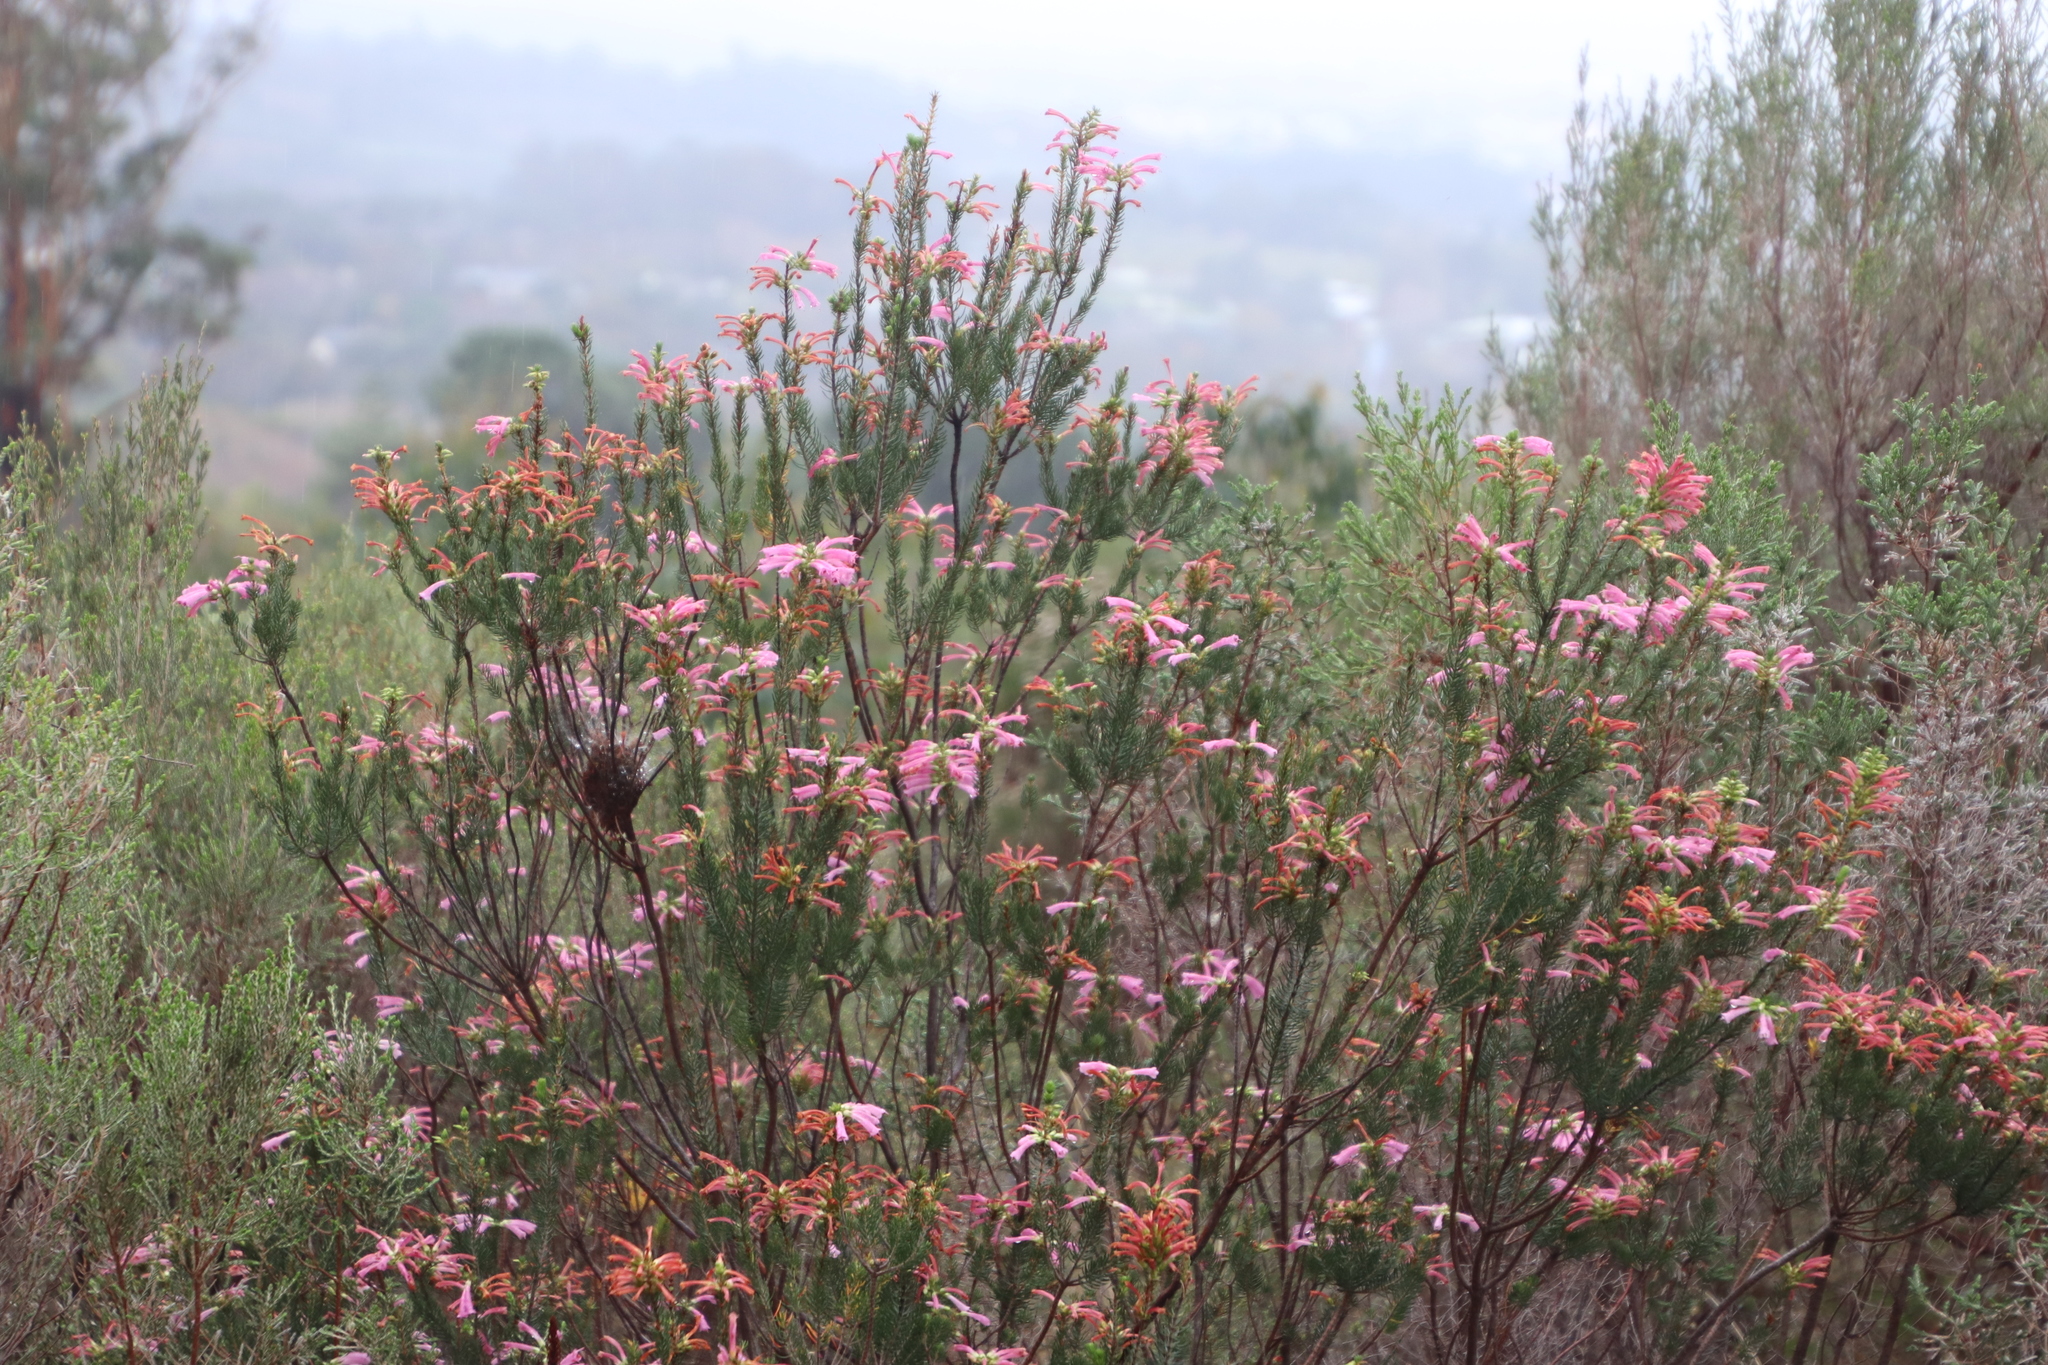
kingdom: Plantae
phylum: Tracheophyta
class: Magnoliopsida
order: Ericales
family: Ericaceae
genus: Erica
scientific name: Erica abietina
